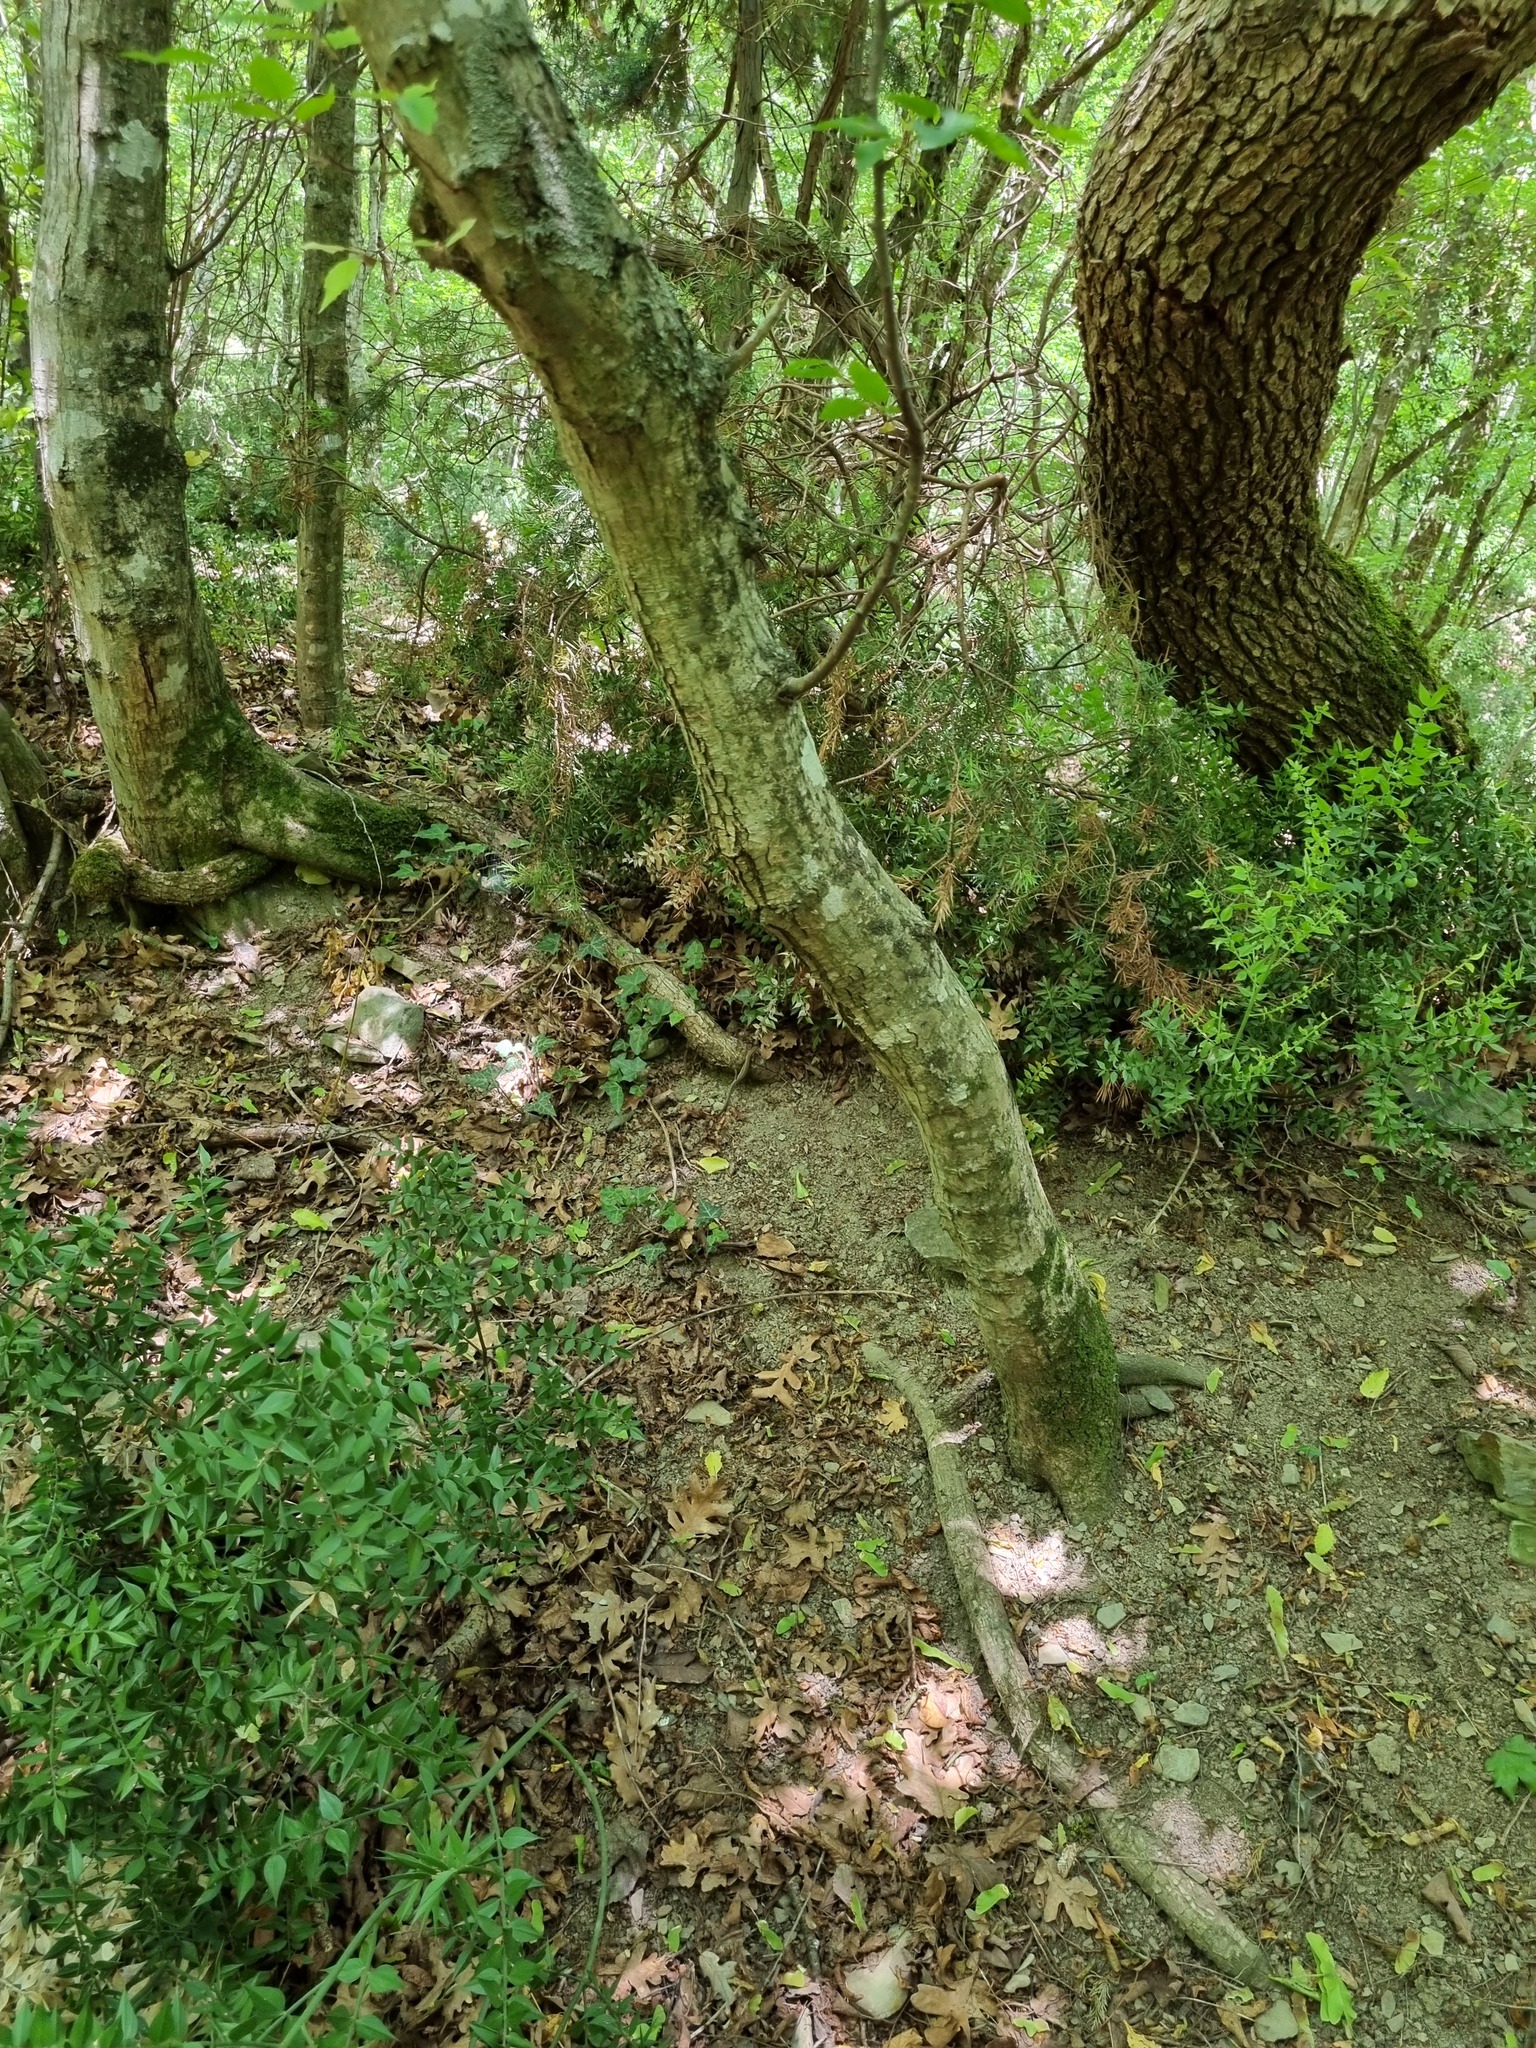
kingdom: Animalia
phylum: Chordata
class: Squamata
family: Lacertidae
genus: Darevskia
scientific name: Darevskia praticola
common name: Meadow lizard
